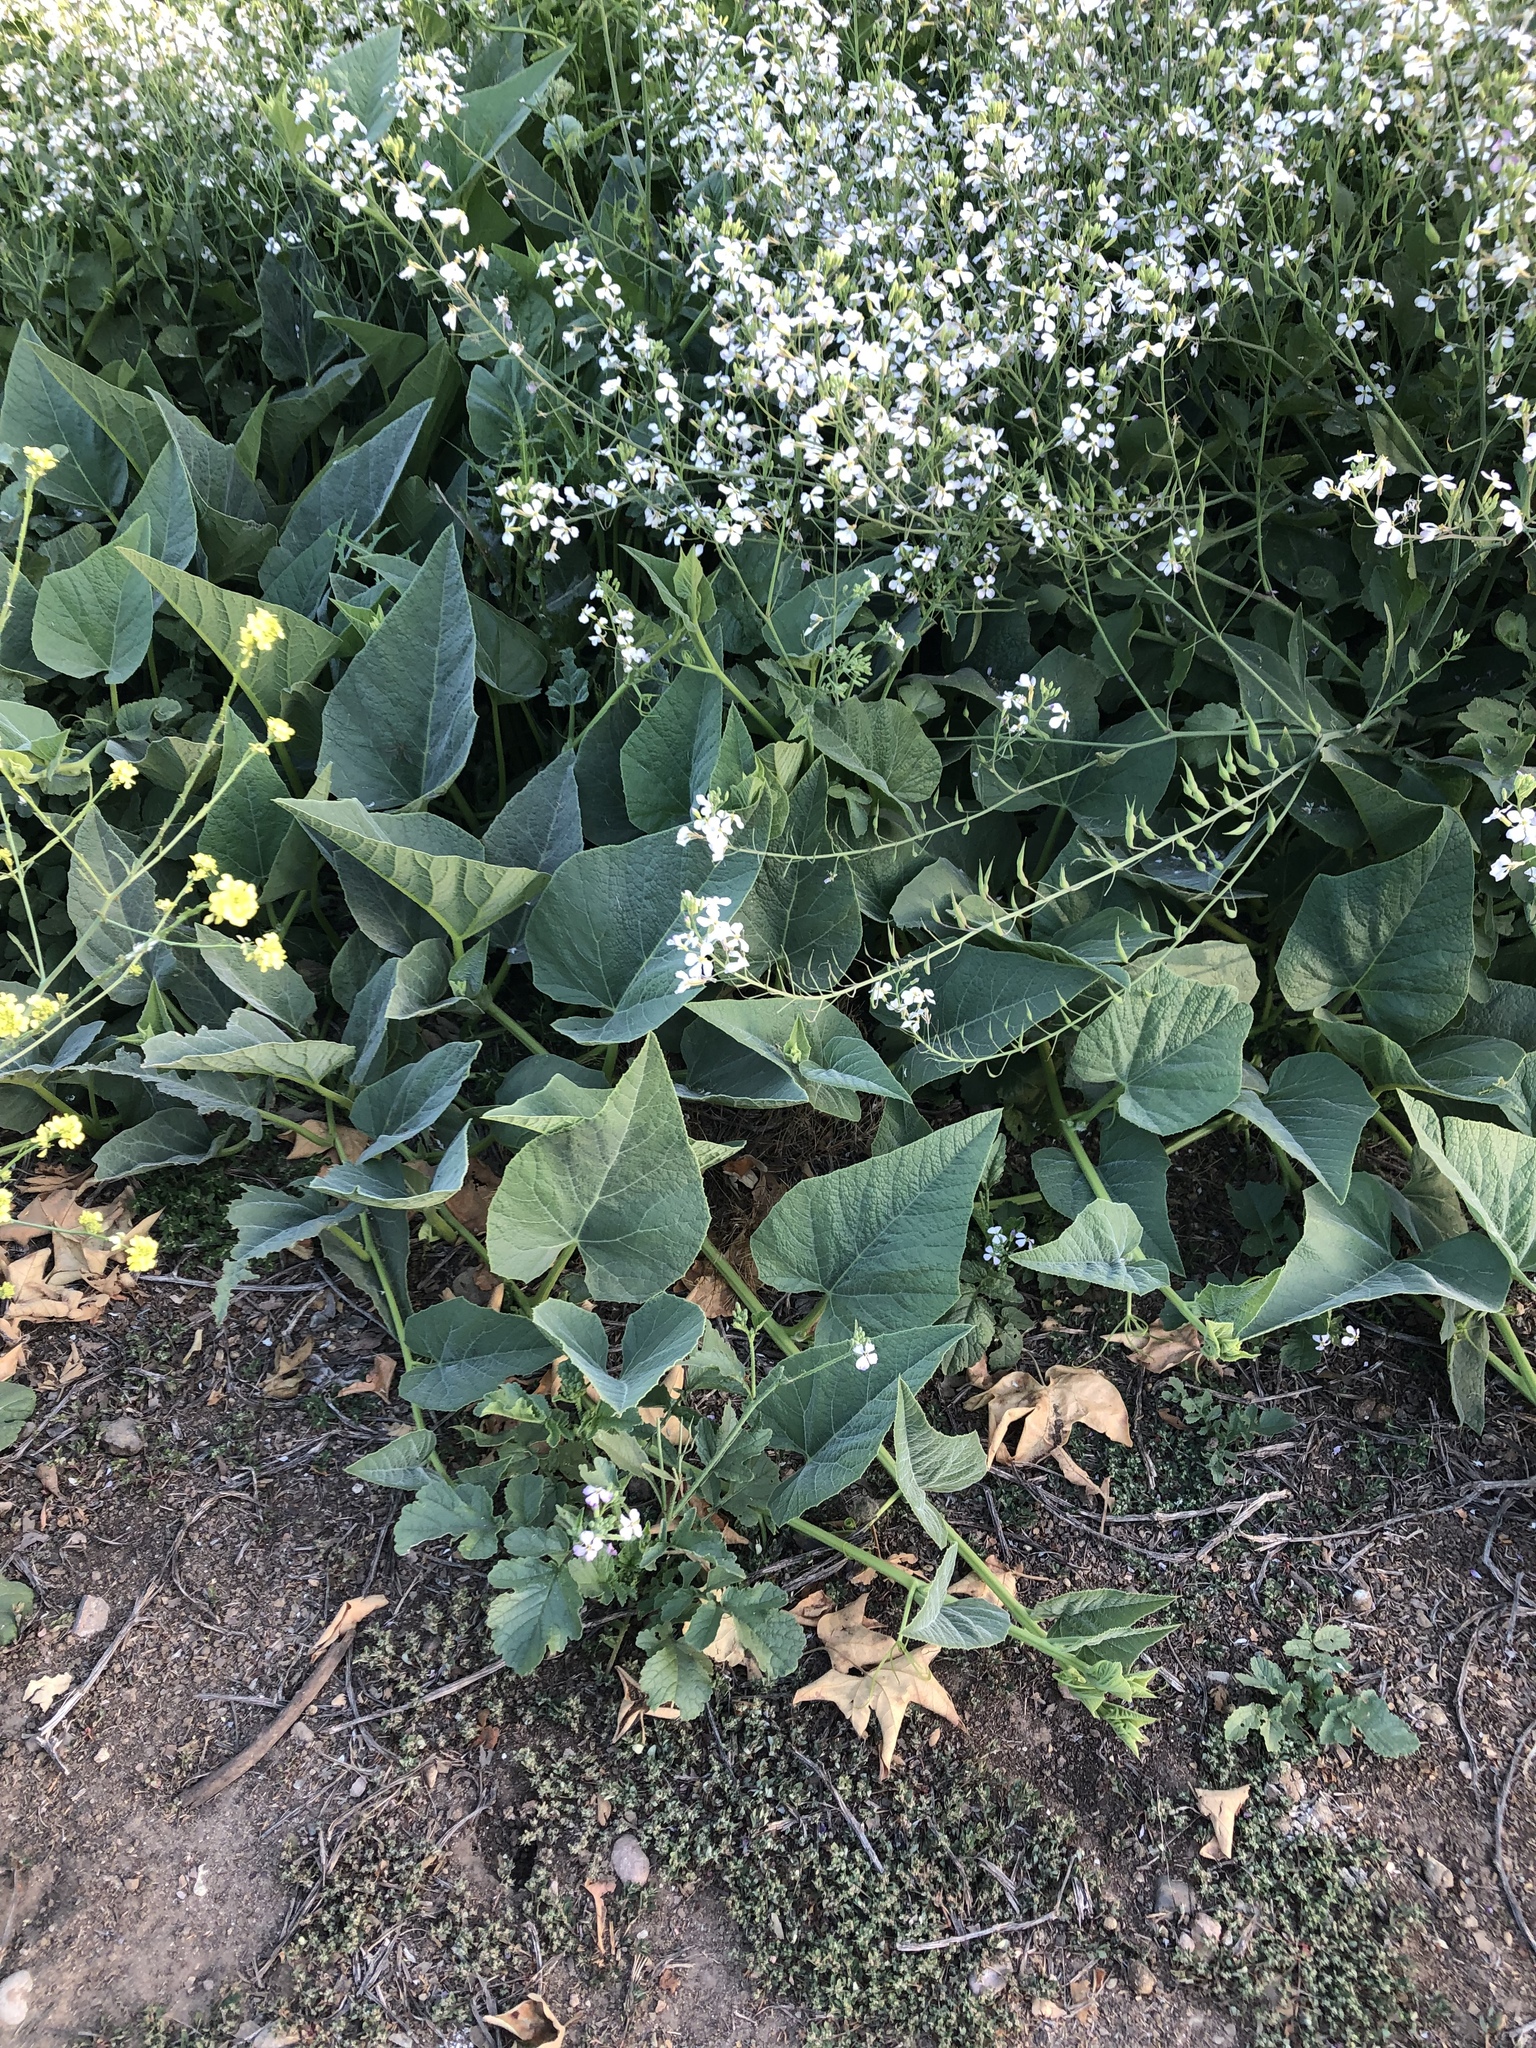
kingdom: Plantae
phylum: Tracheophyta
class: Magnoliopsida
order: Cucurbitales
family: Cucurbitaceae
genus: Cucurbita
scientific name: Cucurbita foetidissima
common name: Buffalo gourd
